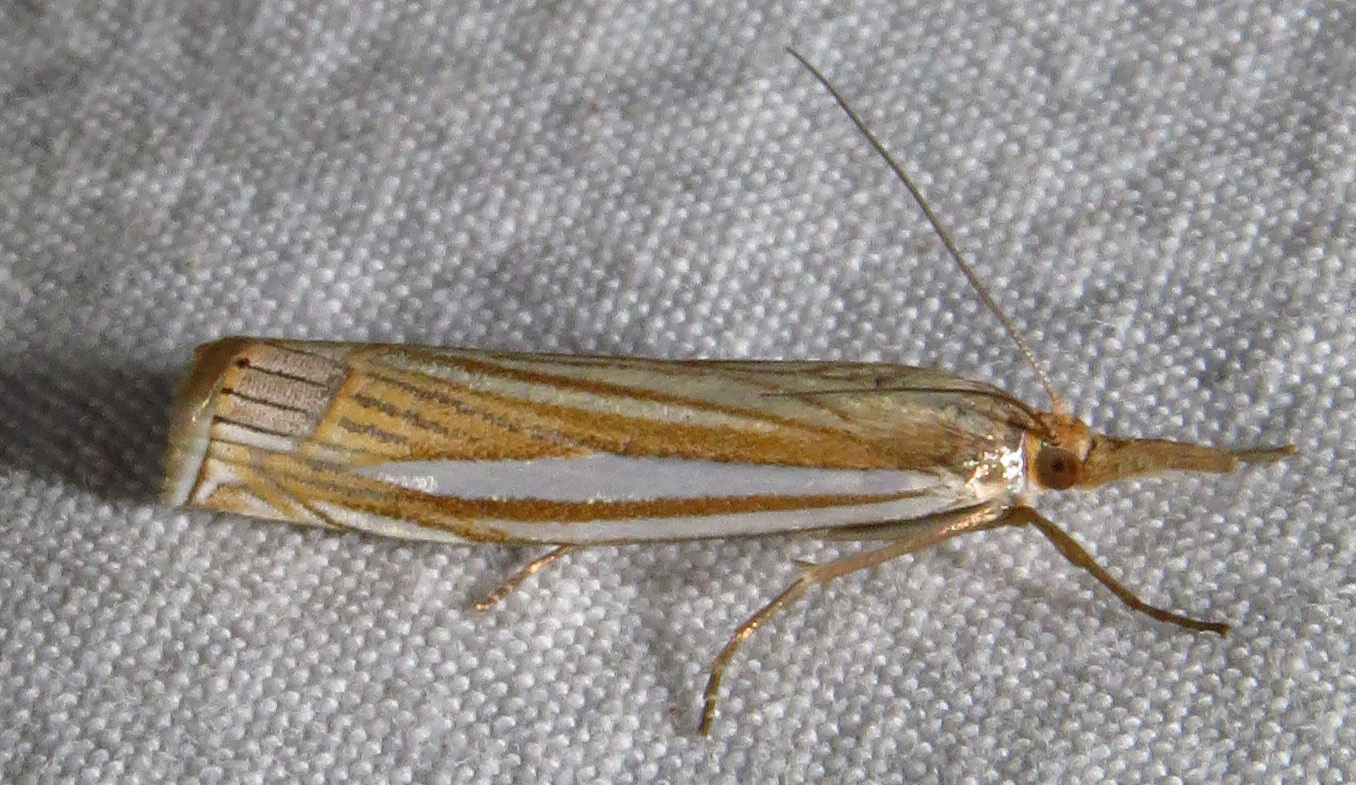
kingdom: Animalia
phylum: Arthropoda
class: Insecta
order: Lepidoptera
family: Crambidae
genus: Crambus
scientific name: Crambus laqueatellus
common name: Eastern grass-veneer
